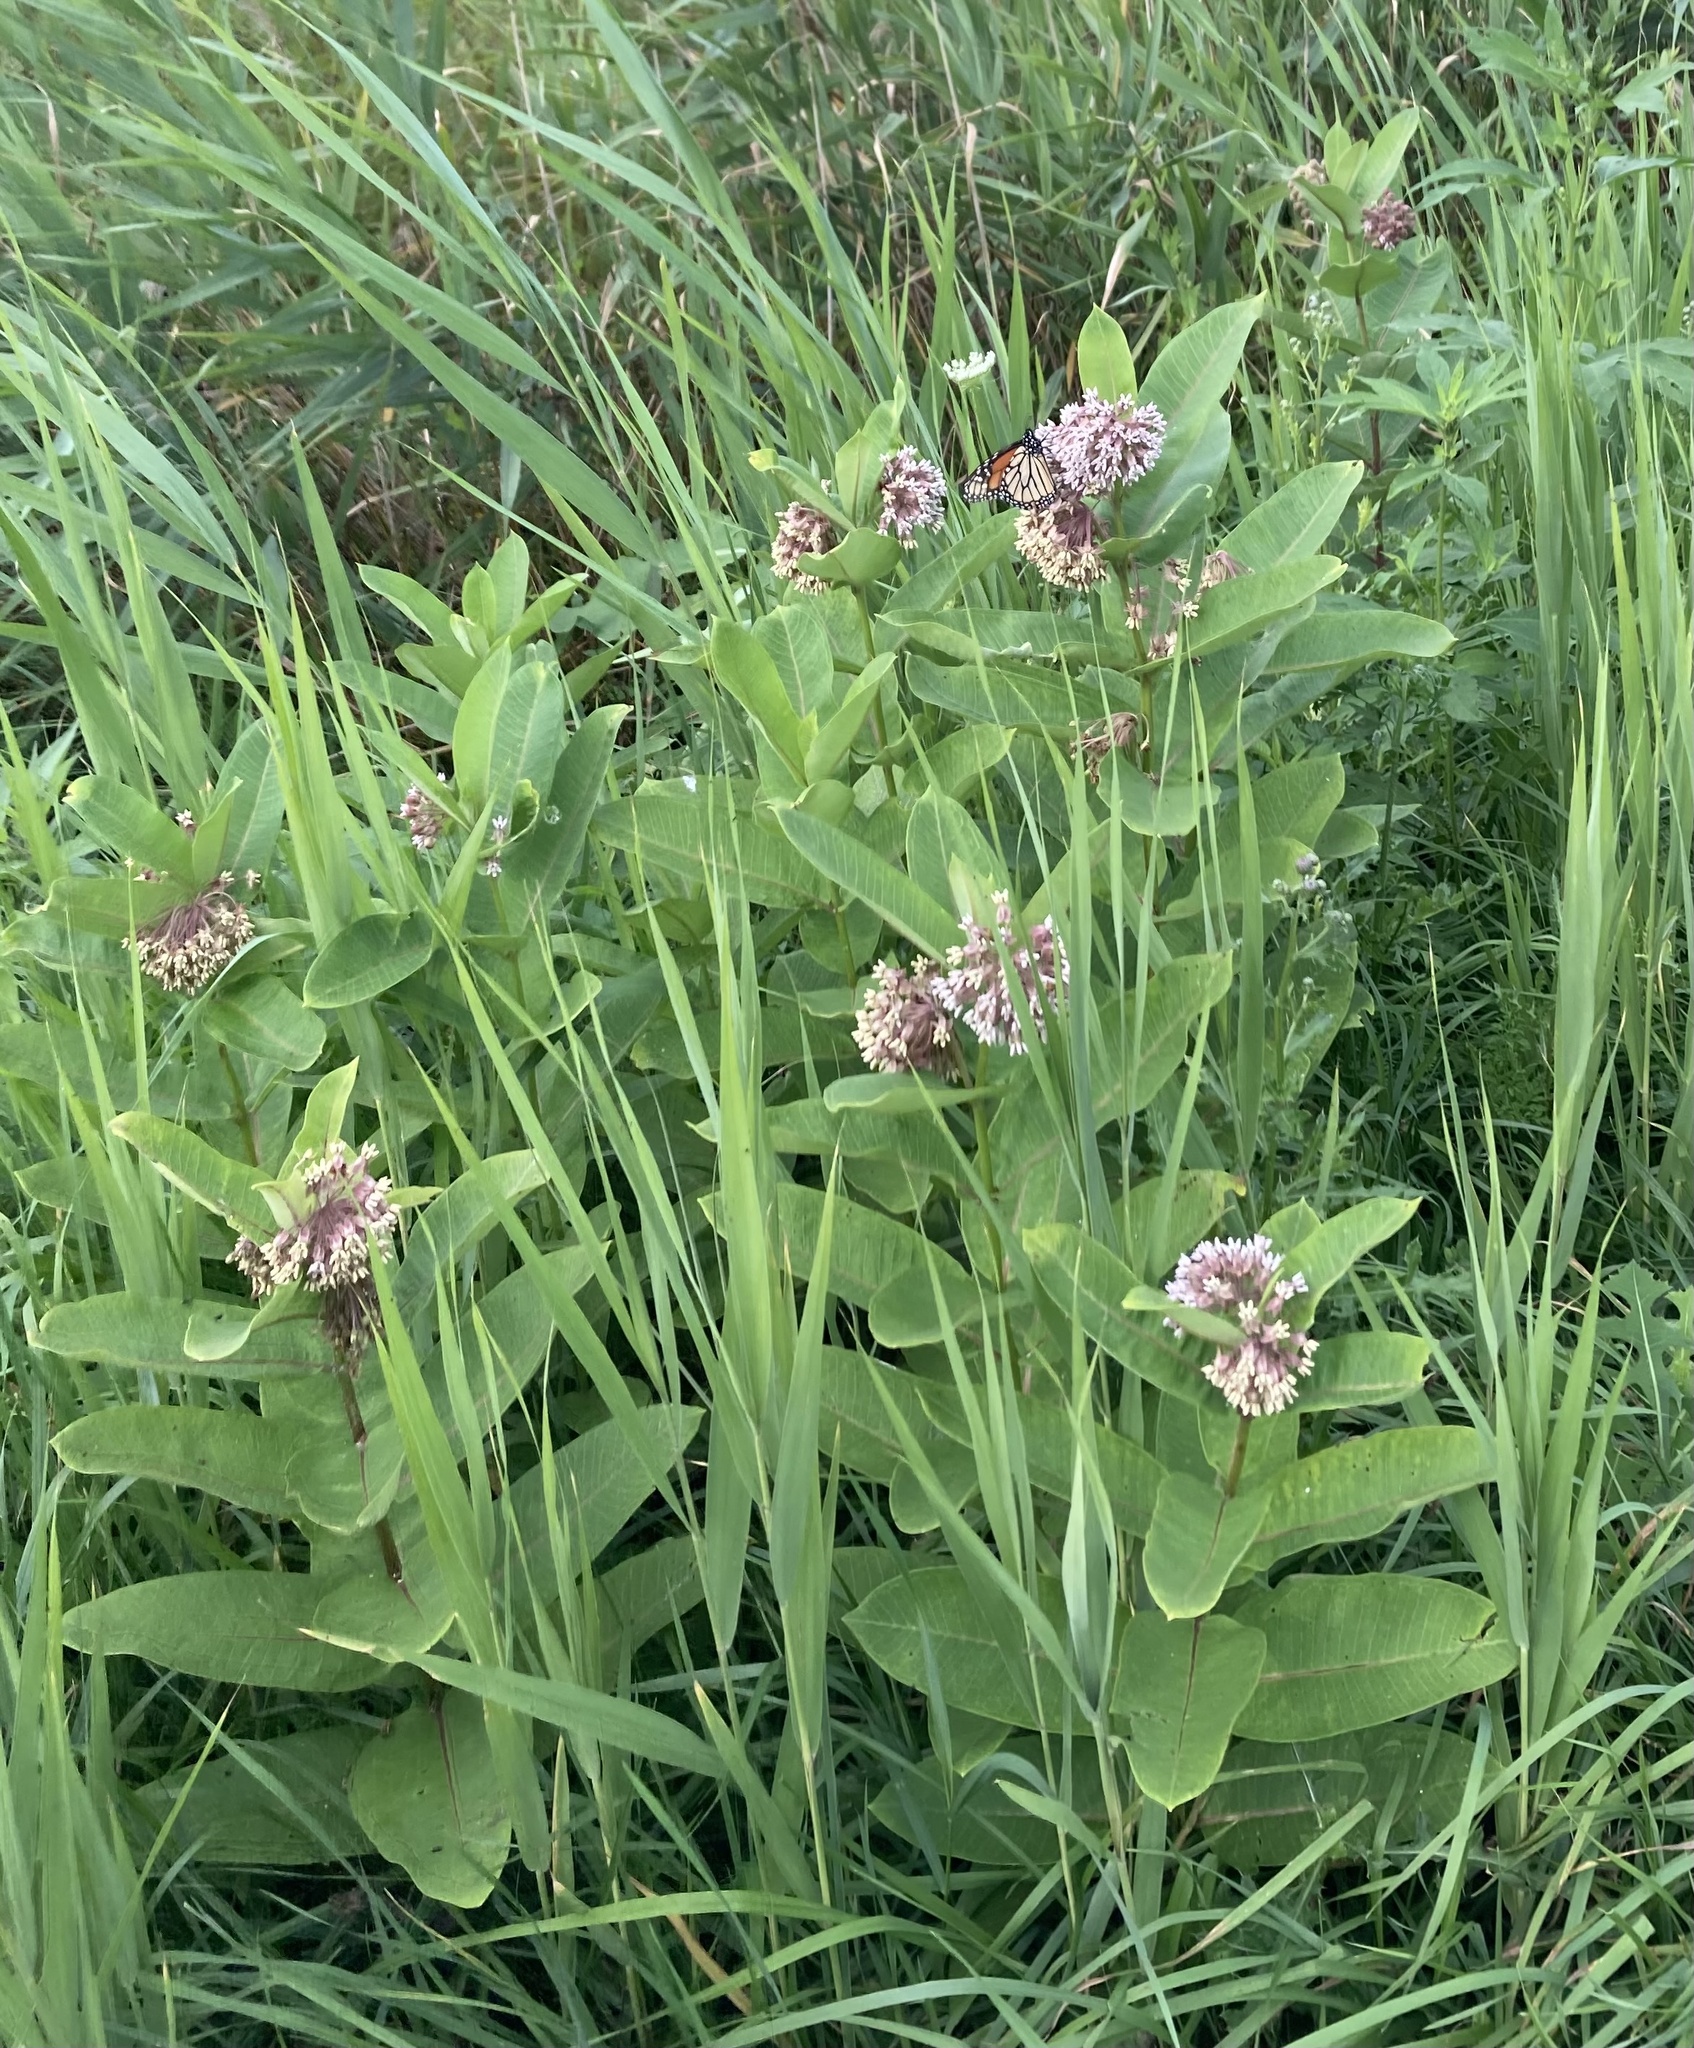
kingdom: Plantae
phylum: Tracheophyta
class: Magnoliopsida
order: Gentianales
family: Apocynaceae
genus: Asclepias
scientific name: Asclepias syriaca
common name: Common milkweed
